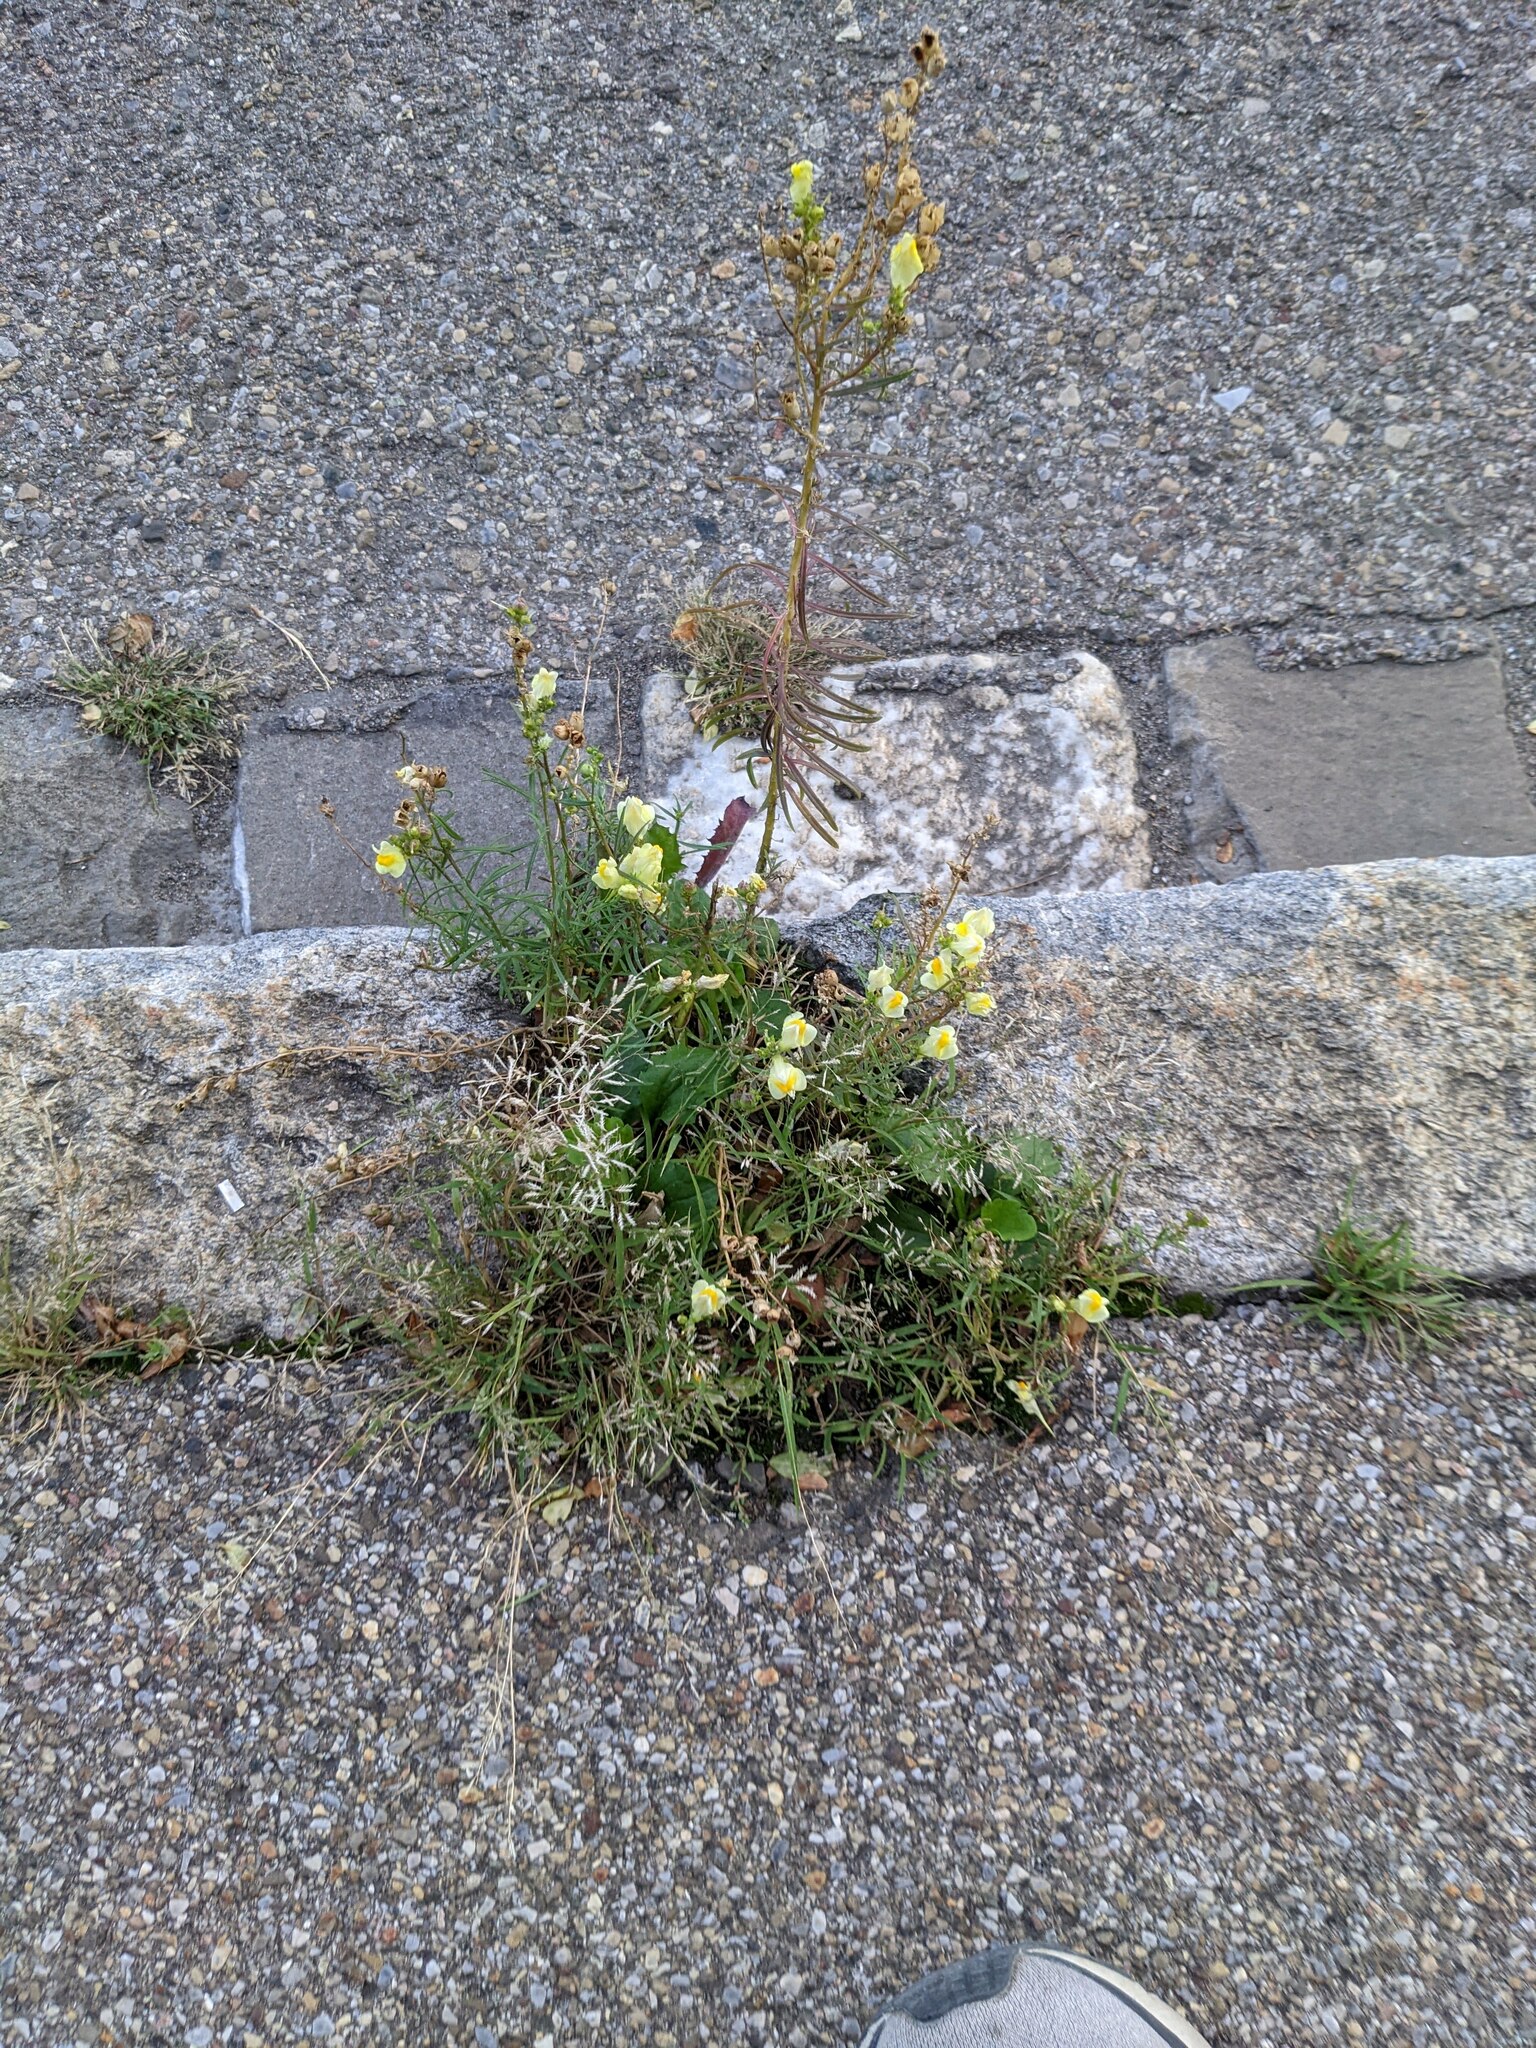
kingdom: Plantae
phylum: Tracheophyta
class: Magnoliopsida
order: Lamiales
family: Plantaginaceae
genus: Linaria
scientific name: Linaria vulgaris
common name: Butter and eggs
